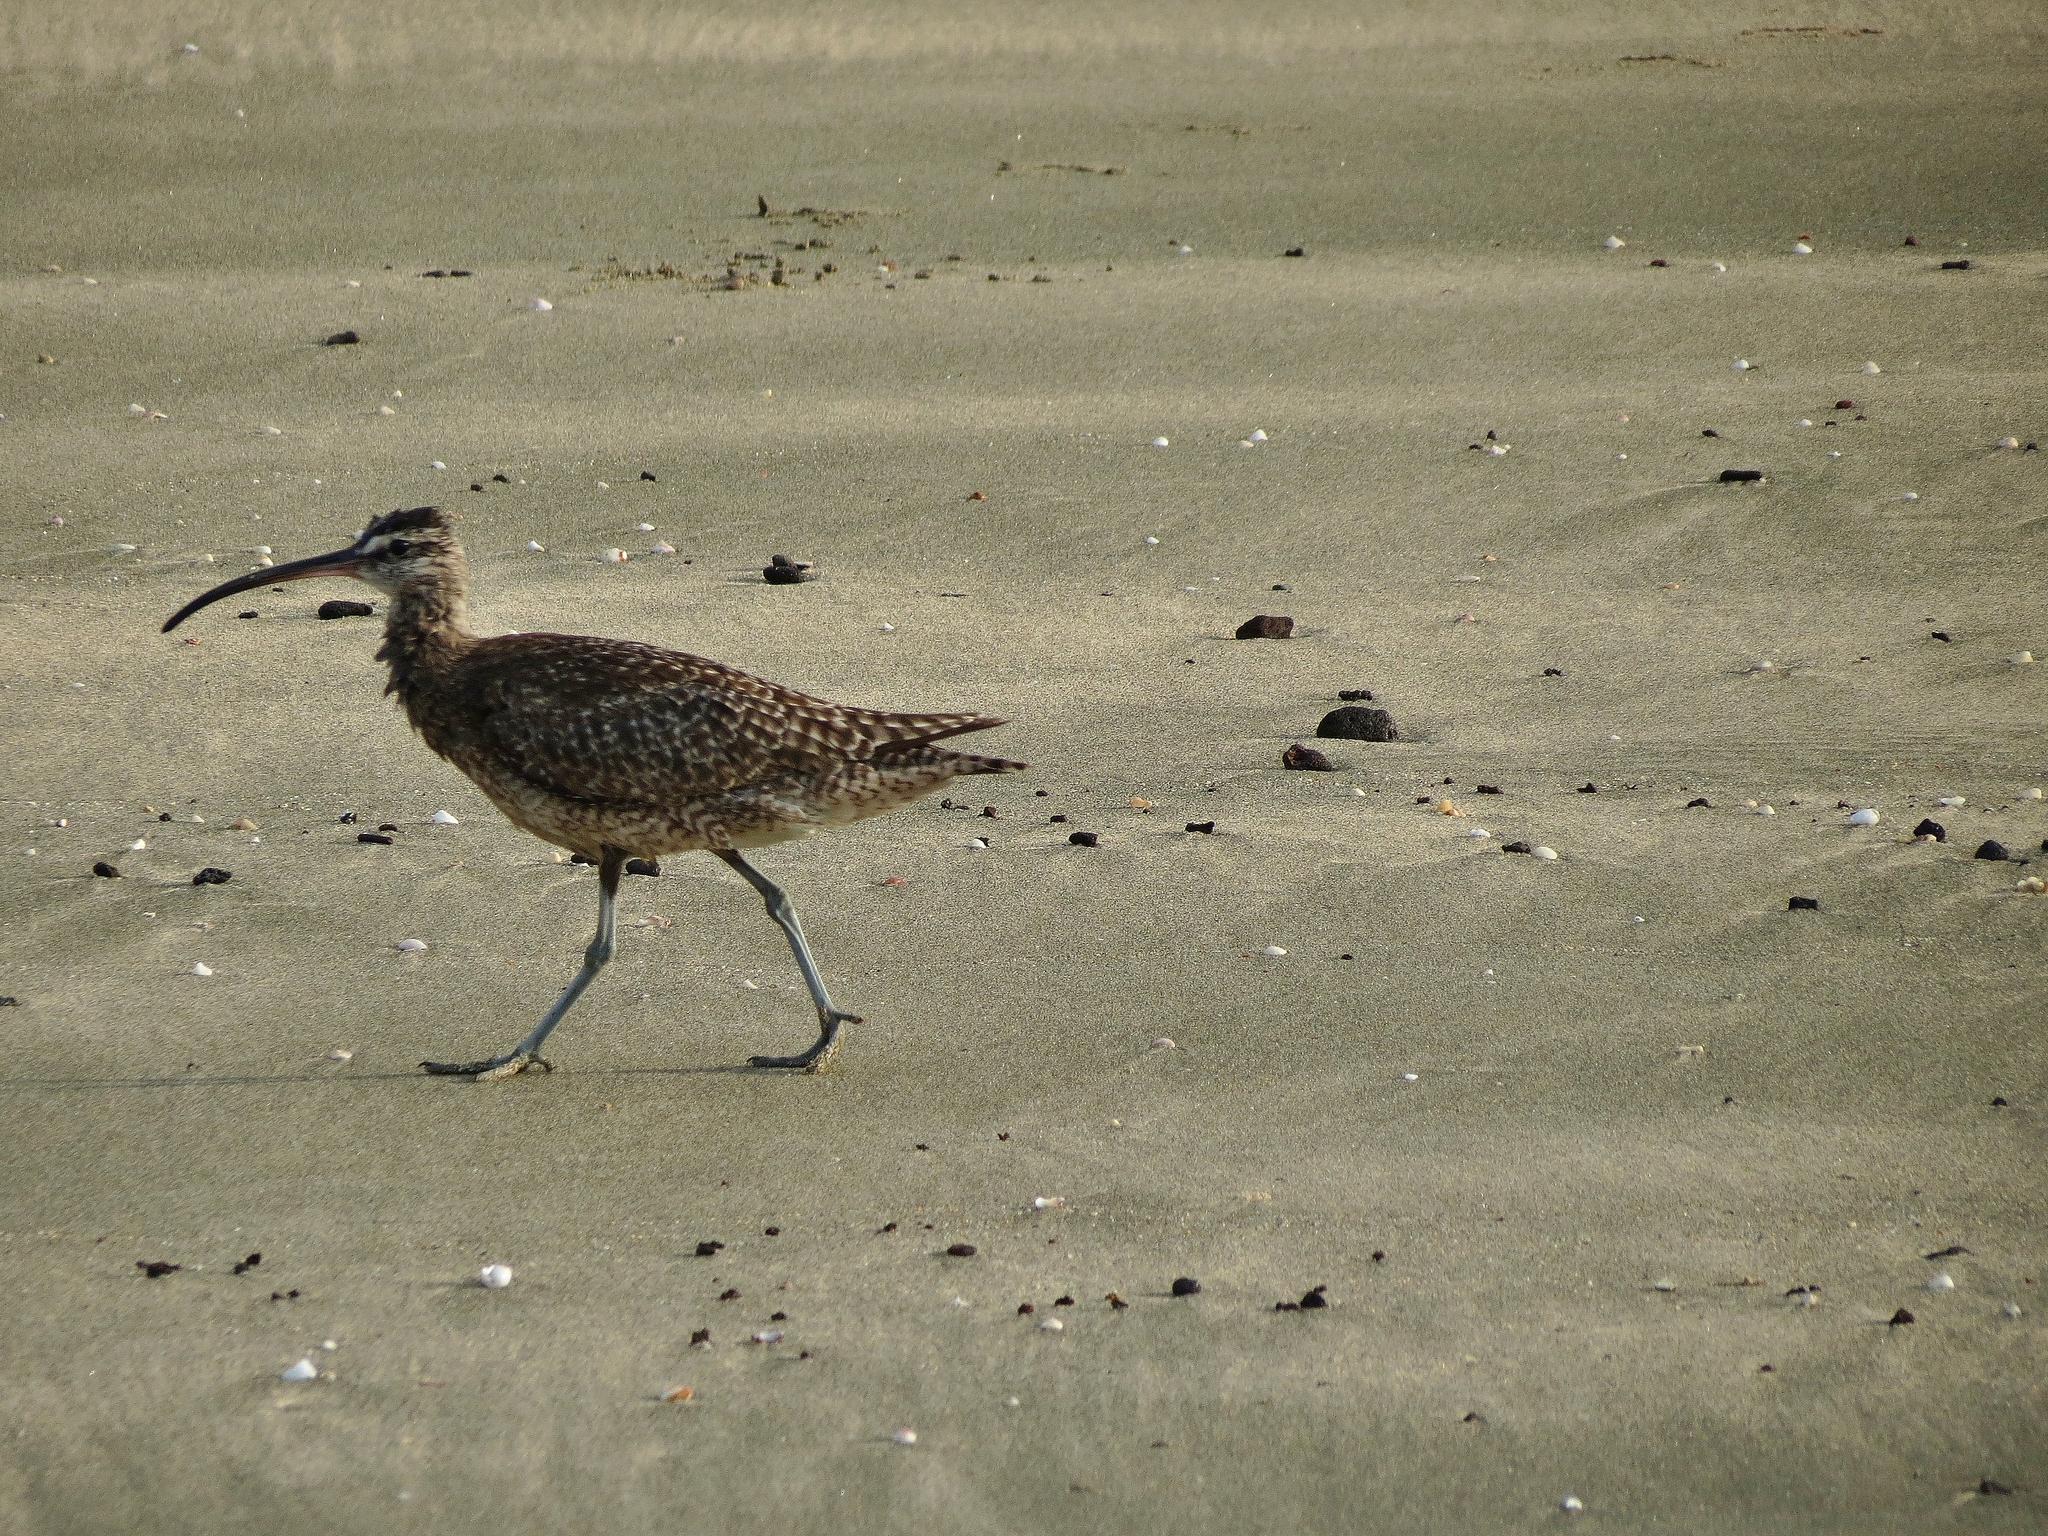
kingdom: Animalia
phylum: Chordata
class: Aves
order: Charadriiformes
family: Scolopacidae
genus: Numenius
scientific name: Numenius phaeopus
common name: Whimbrel
